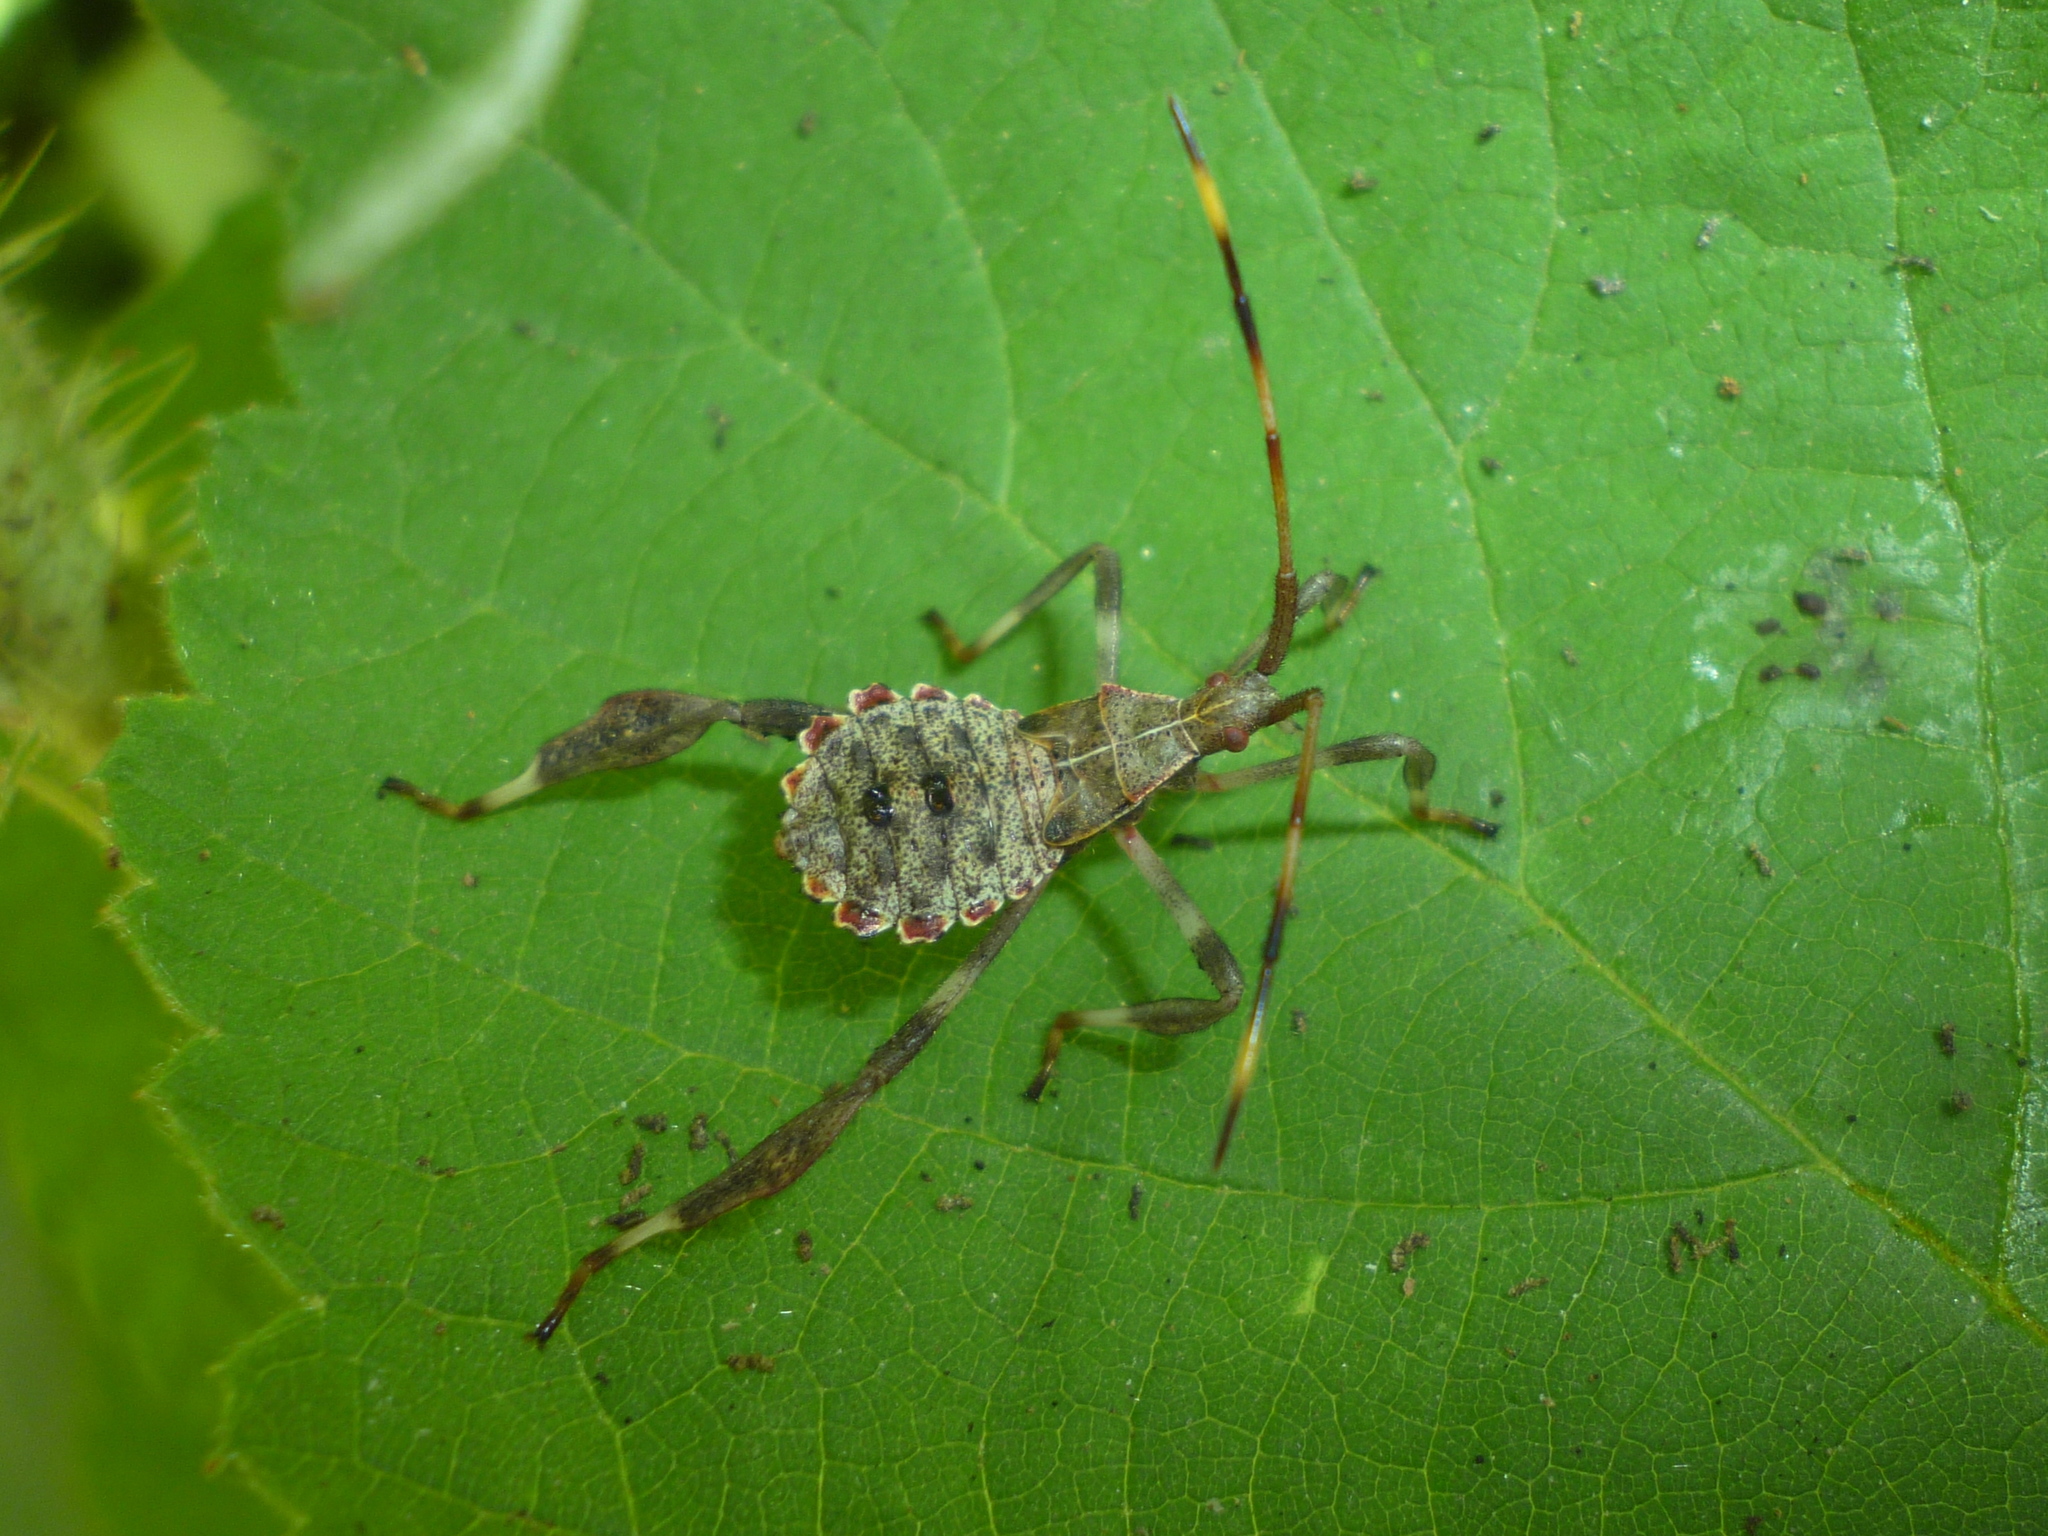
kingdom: Animalia
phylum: Arthropoda
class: Insecta
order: Hemiptera
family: Coreidae
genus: Acanthocephala
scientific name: Acanthocephala terminalis
